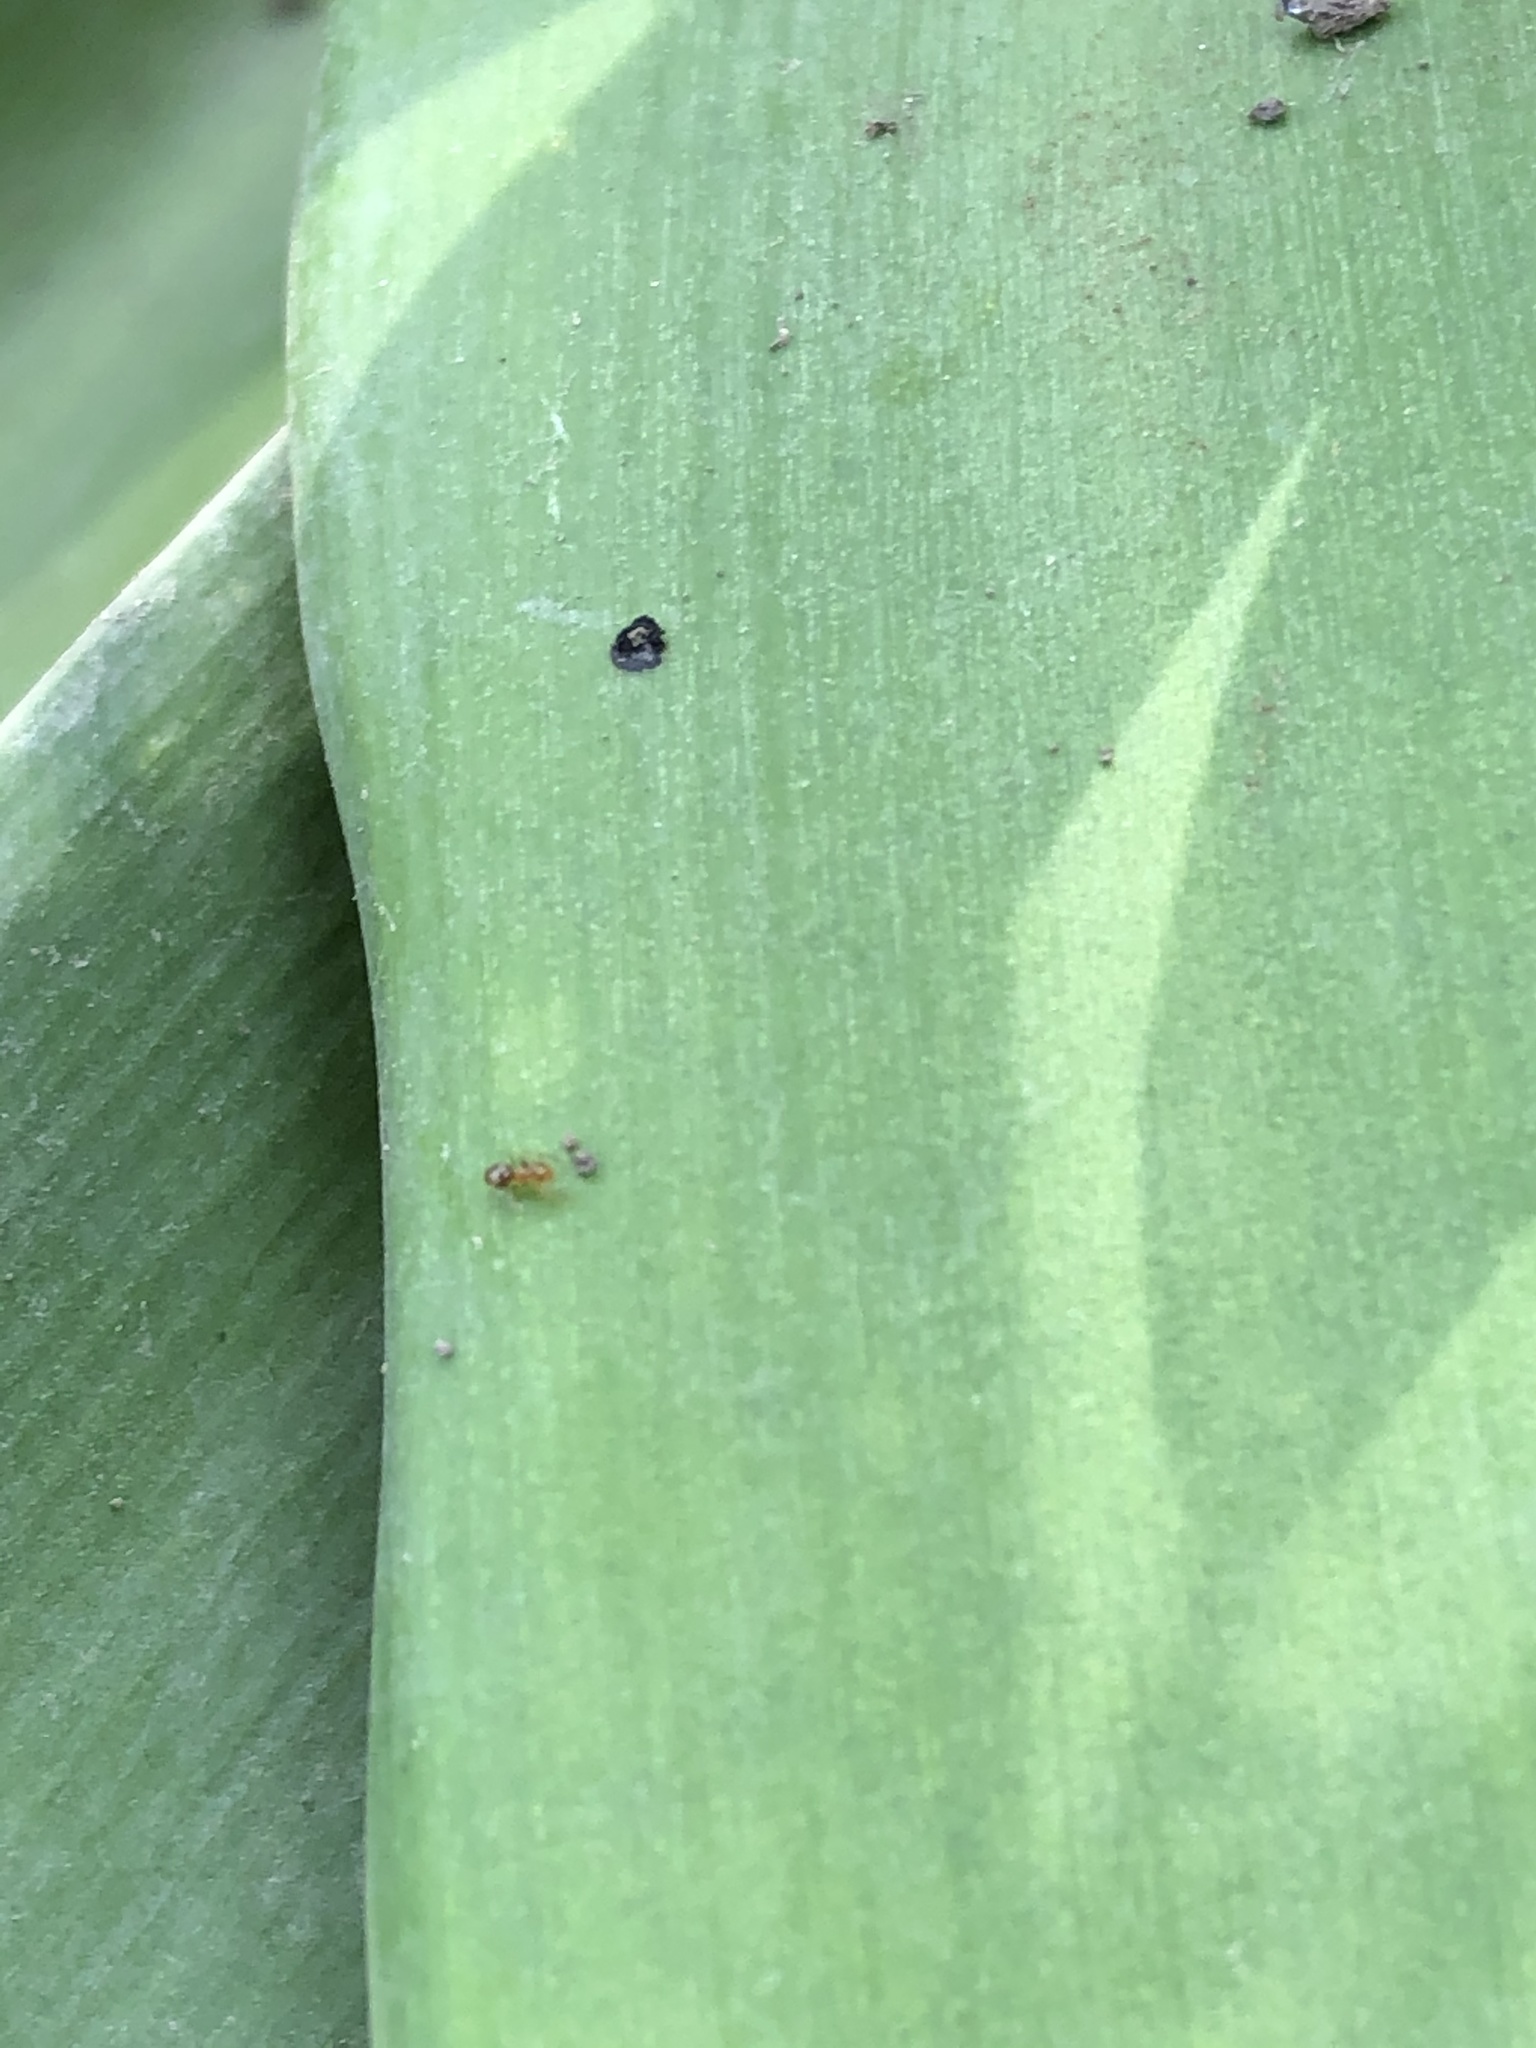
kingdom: Animalia
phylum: Arthropoda
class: Insecta
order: Hymenoptera
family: Formicidae
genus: Tapinoma
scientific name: Tapinoma melanocephalum
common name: Ghost ant
